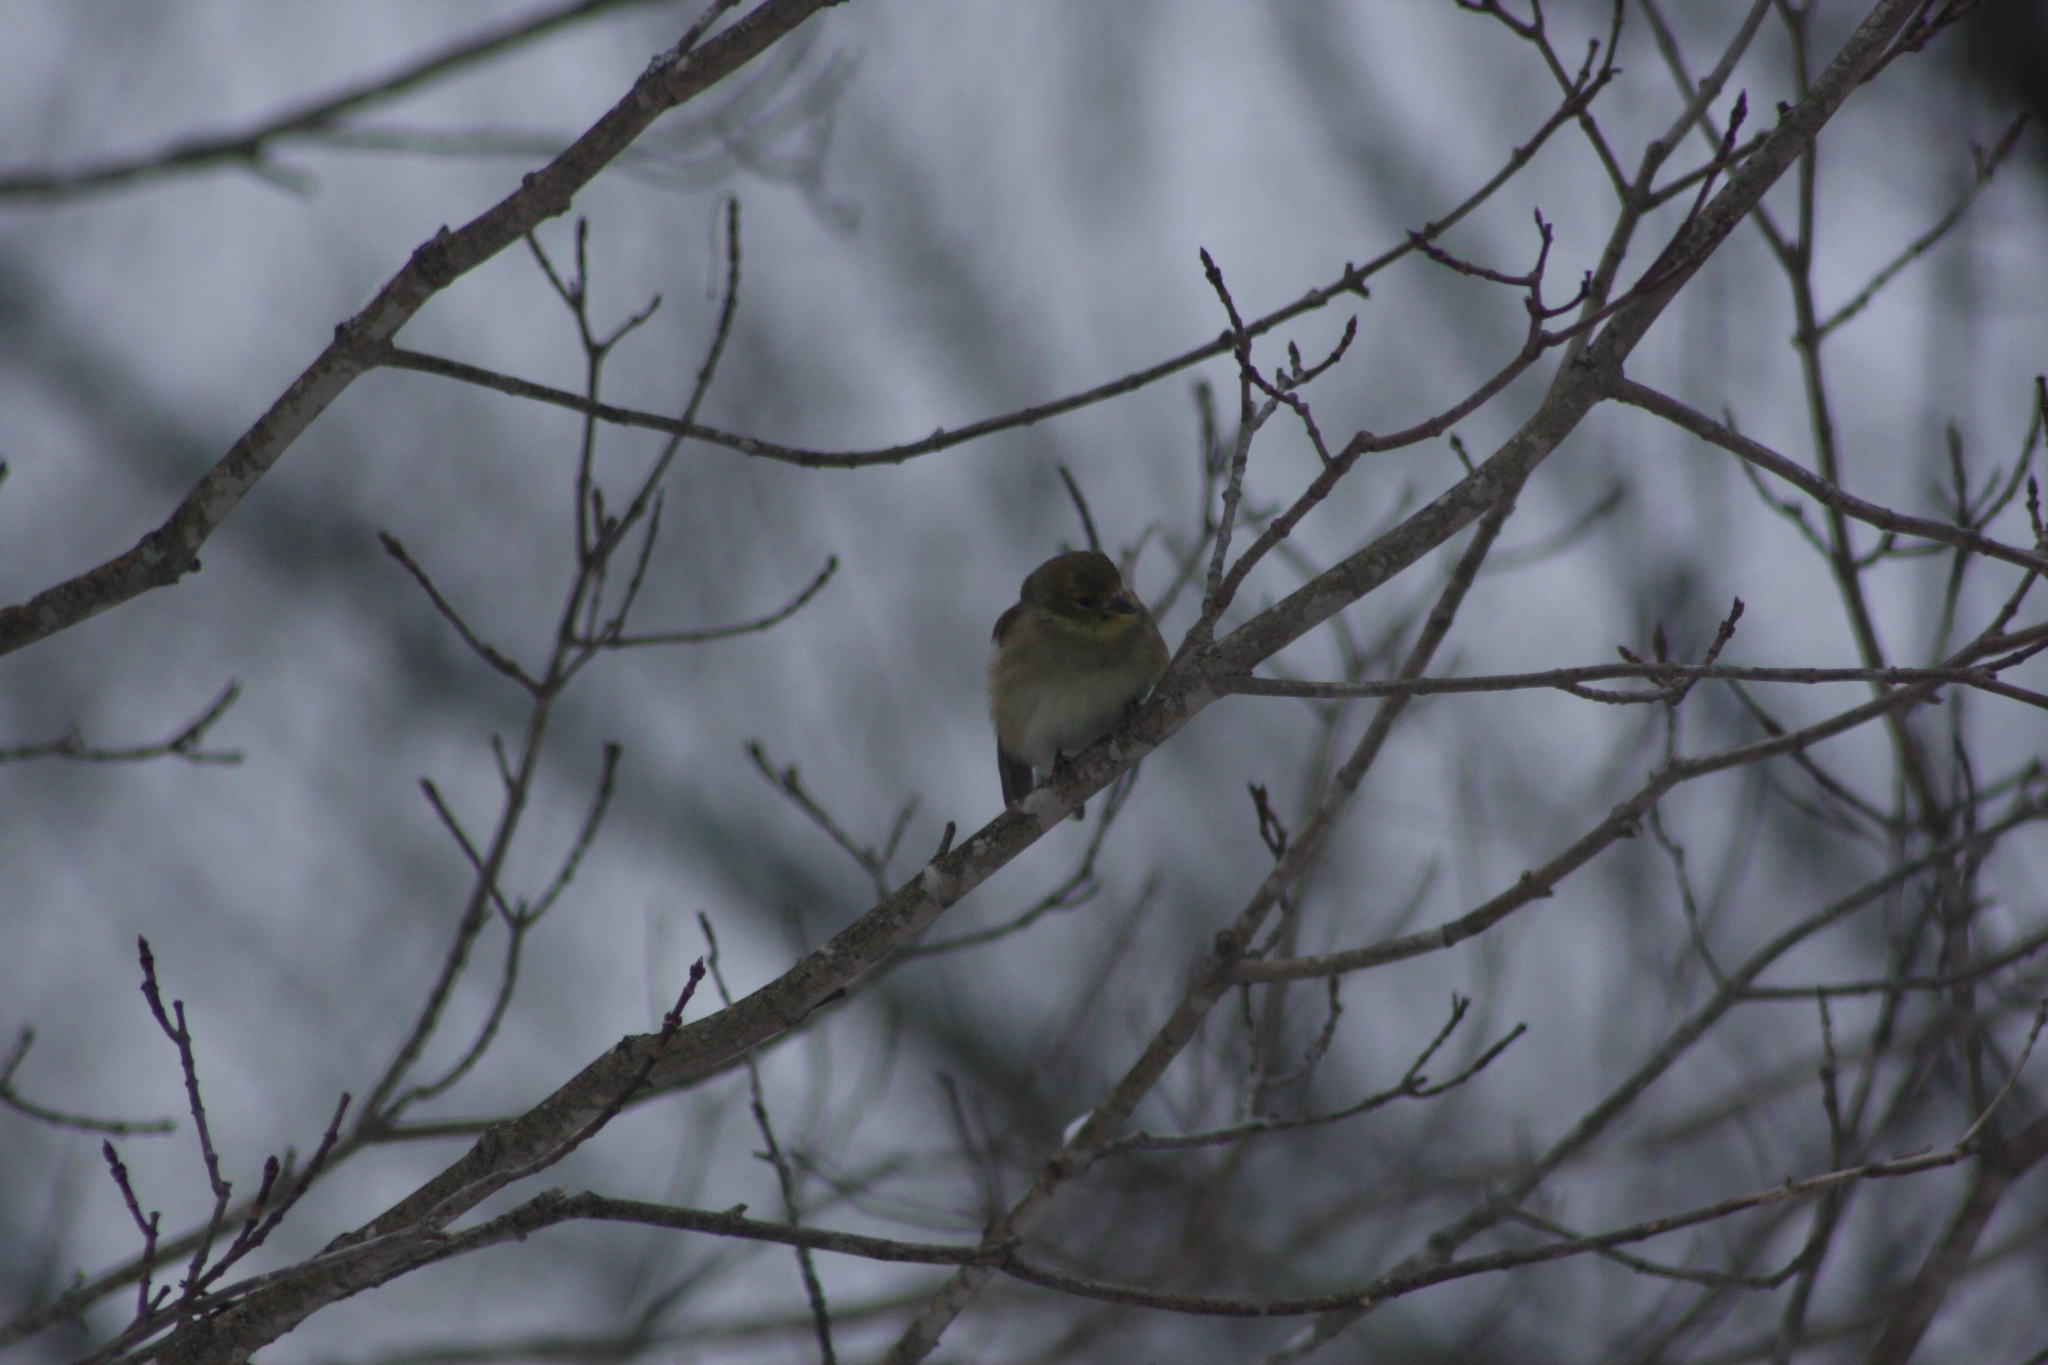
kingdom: Animalia
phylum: Chordata
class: Aves
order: Passeriformes
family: Fringillidae
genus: Spinus
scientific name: Spinus tristis
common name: American goldfinch
